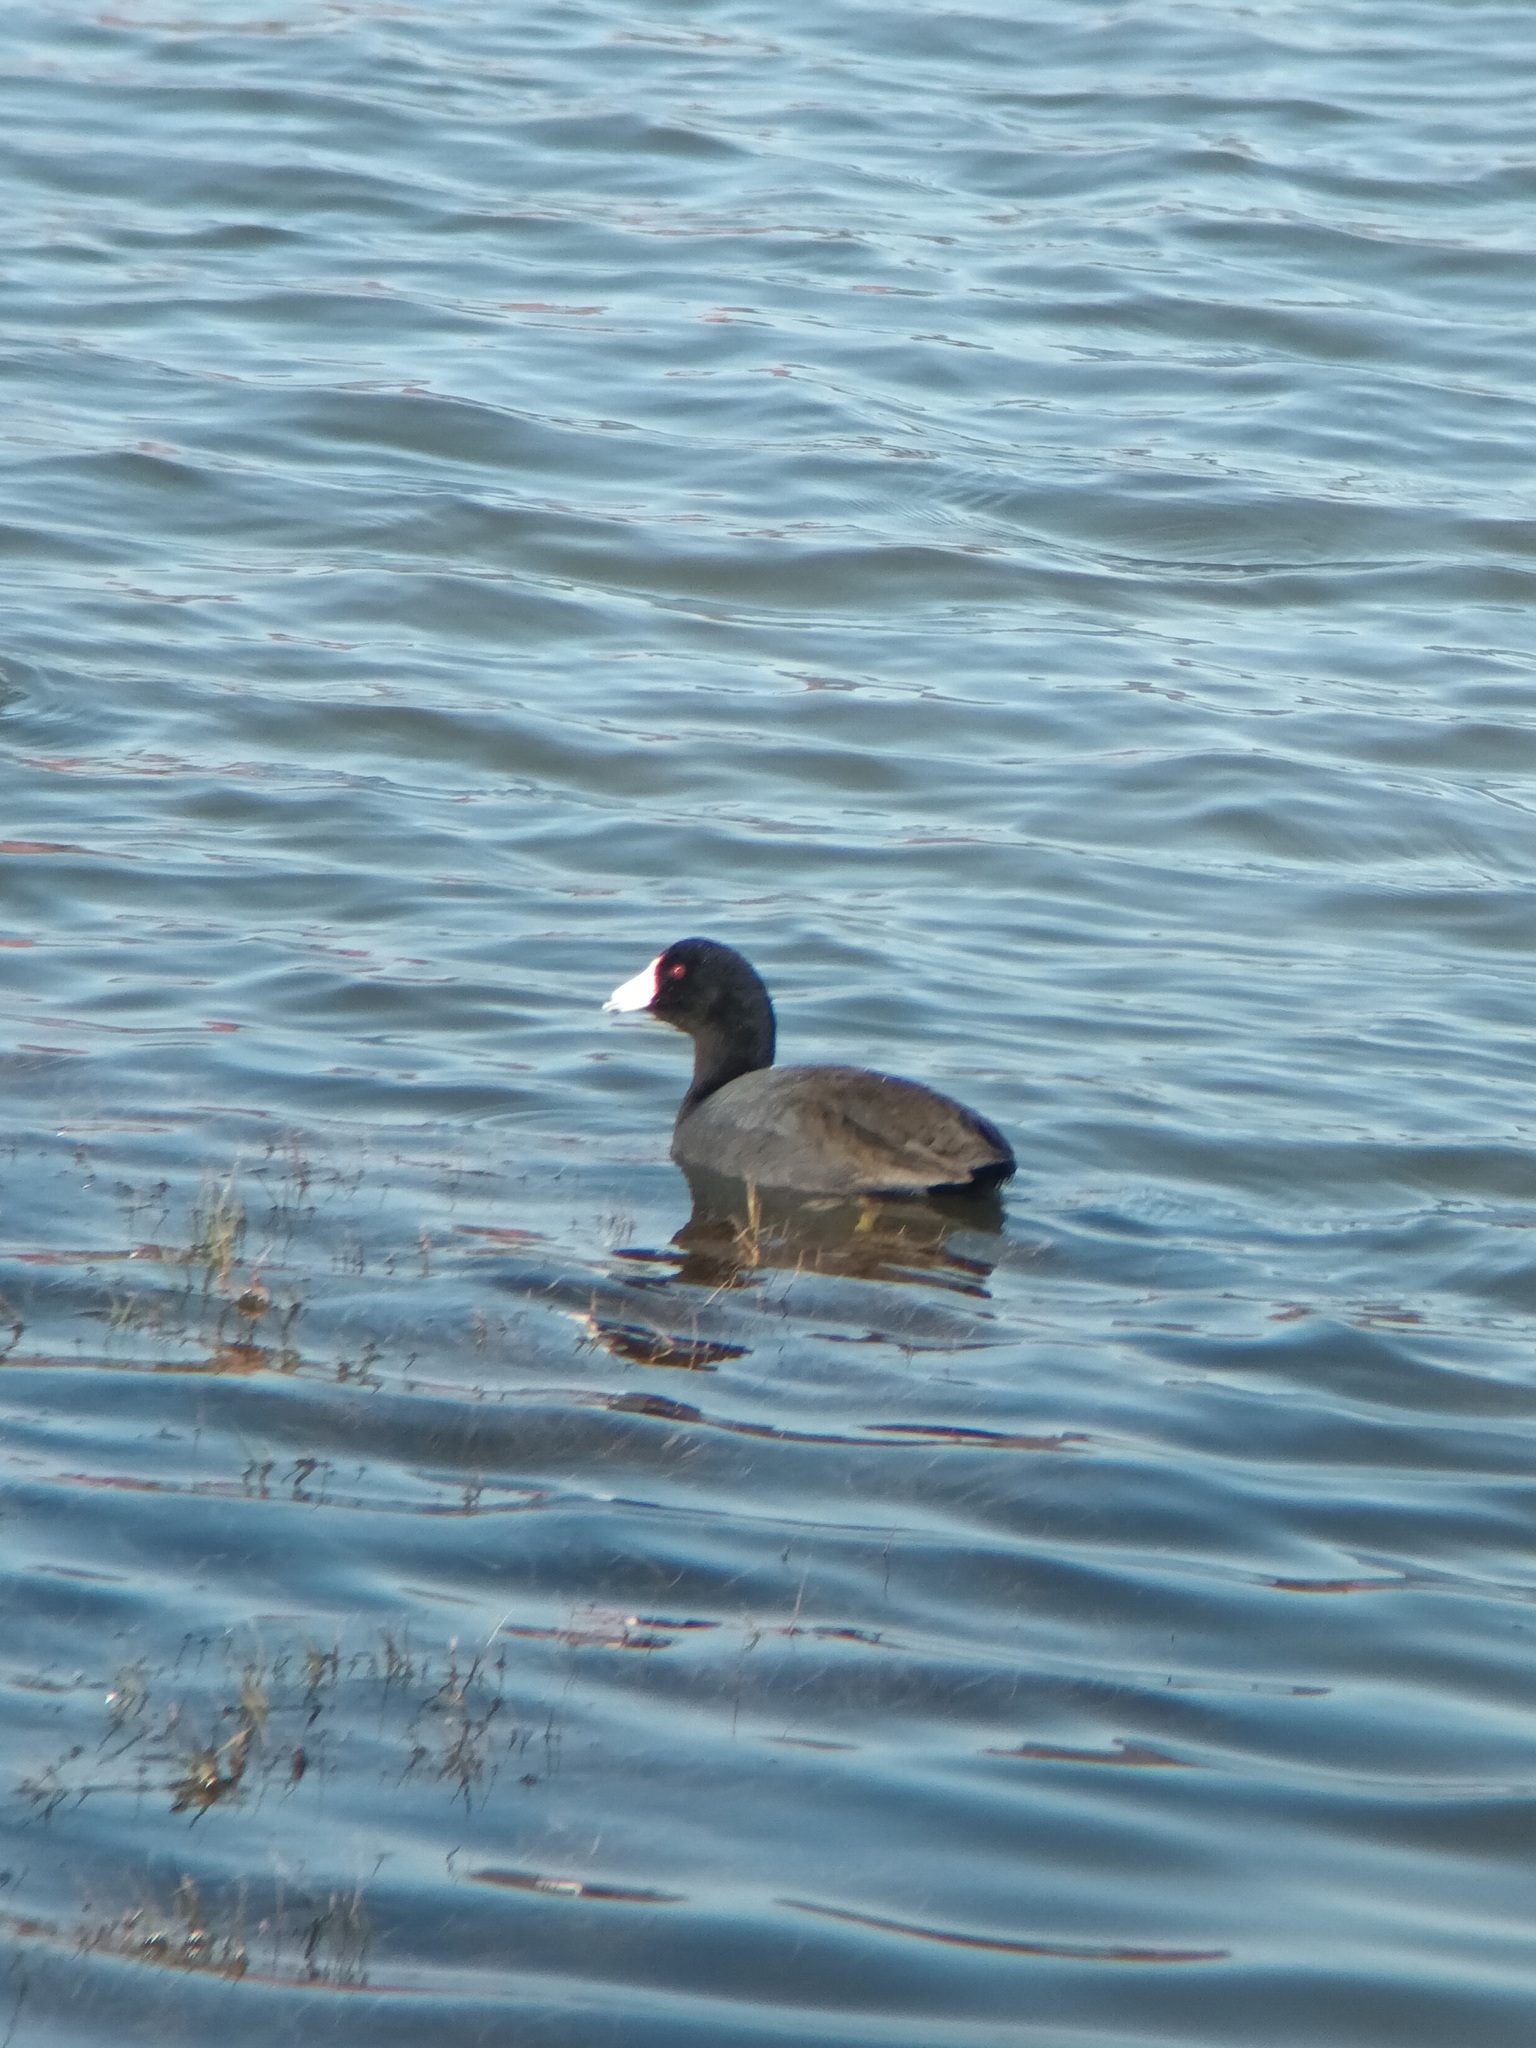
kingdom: Animalia
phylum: Chordata
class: Aves
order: Gruiformes
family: Rallidae
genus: Fulica
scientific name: Fulica americana
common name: American coot
